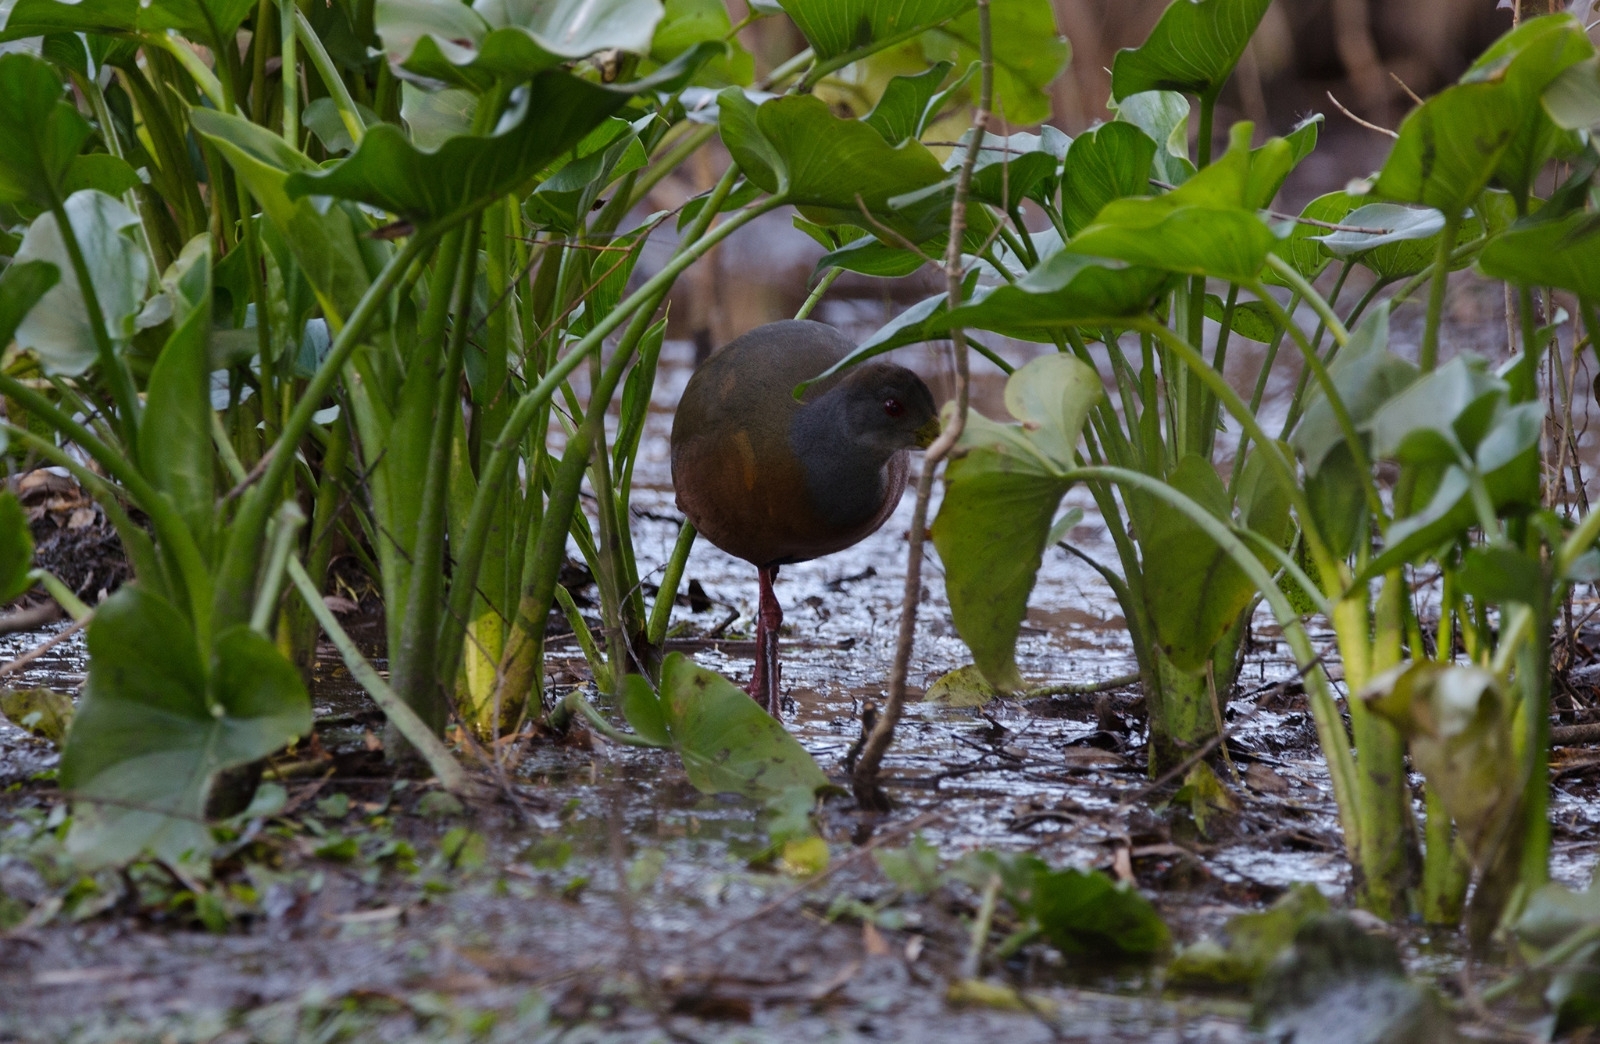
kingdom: Animalia
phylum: Chordata
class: Aves
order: Gruiformes
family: Rallidae
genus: Aramides
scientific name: Aramides cajanea
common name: Gray-necked wood-rail
